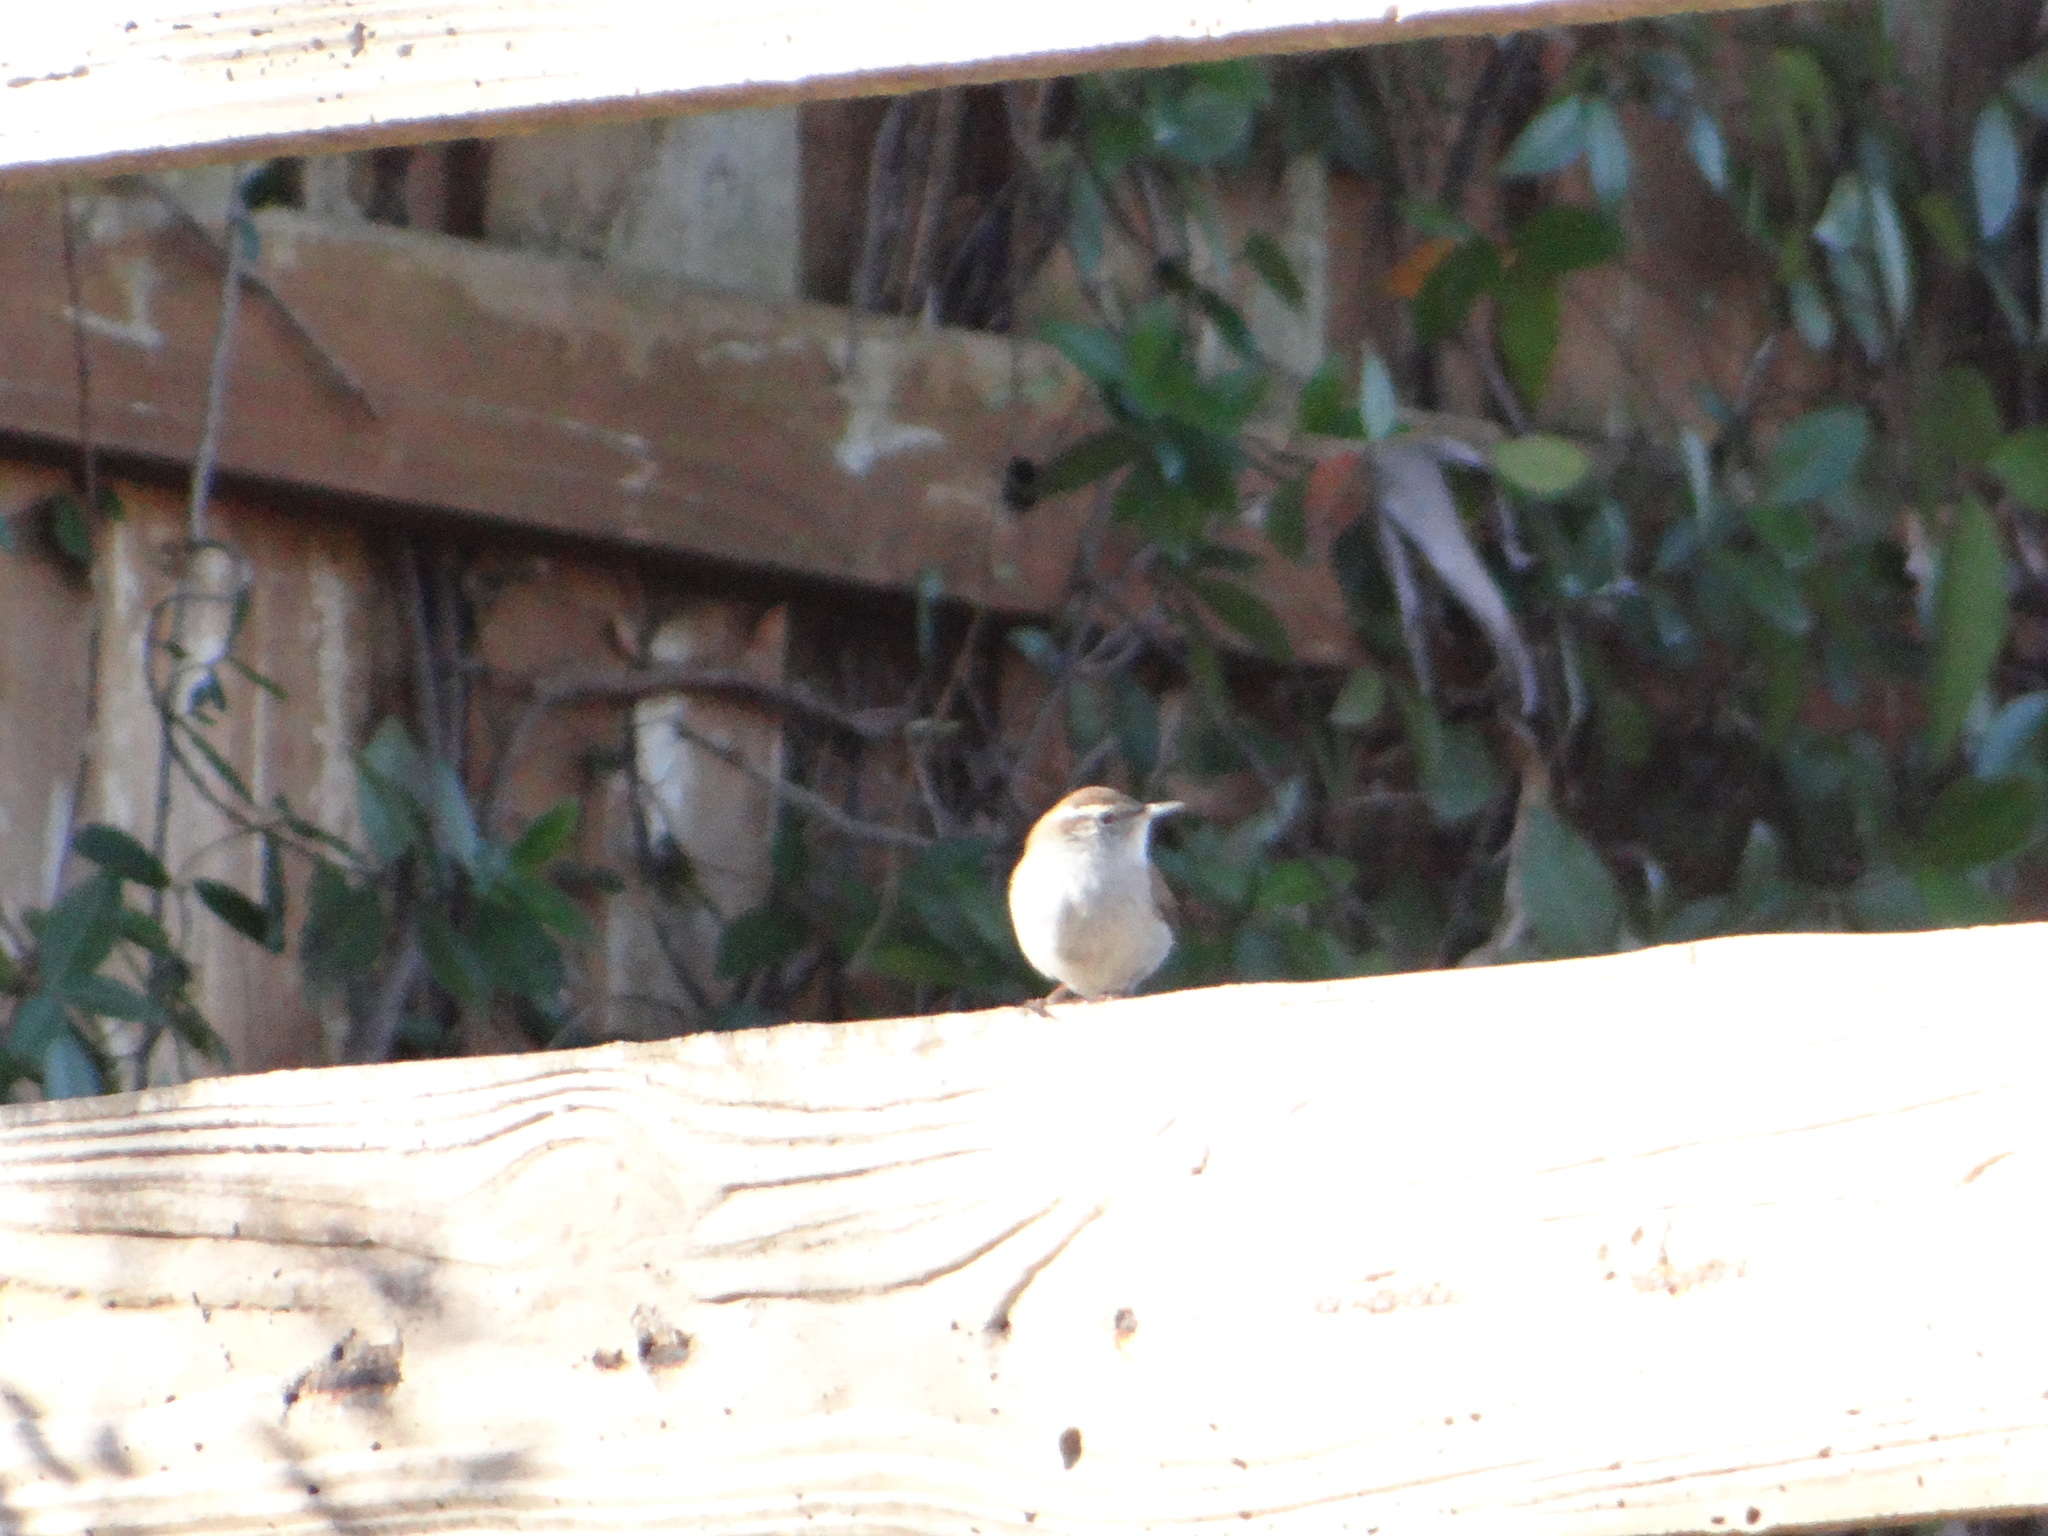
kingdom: Animalia
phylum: Chordata
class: Aves
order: Passeriformes
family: Troglodytidae
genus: Thryomanes
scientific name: Thryomanes bewickii
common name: Bewick's wren
